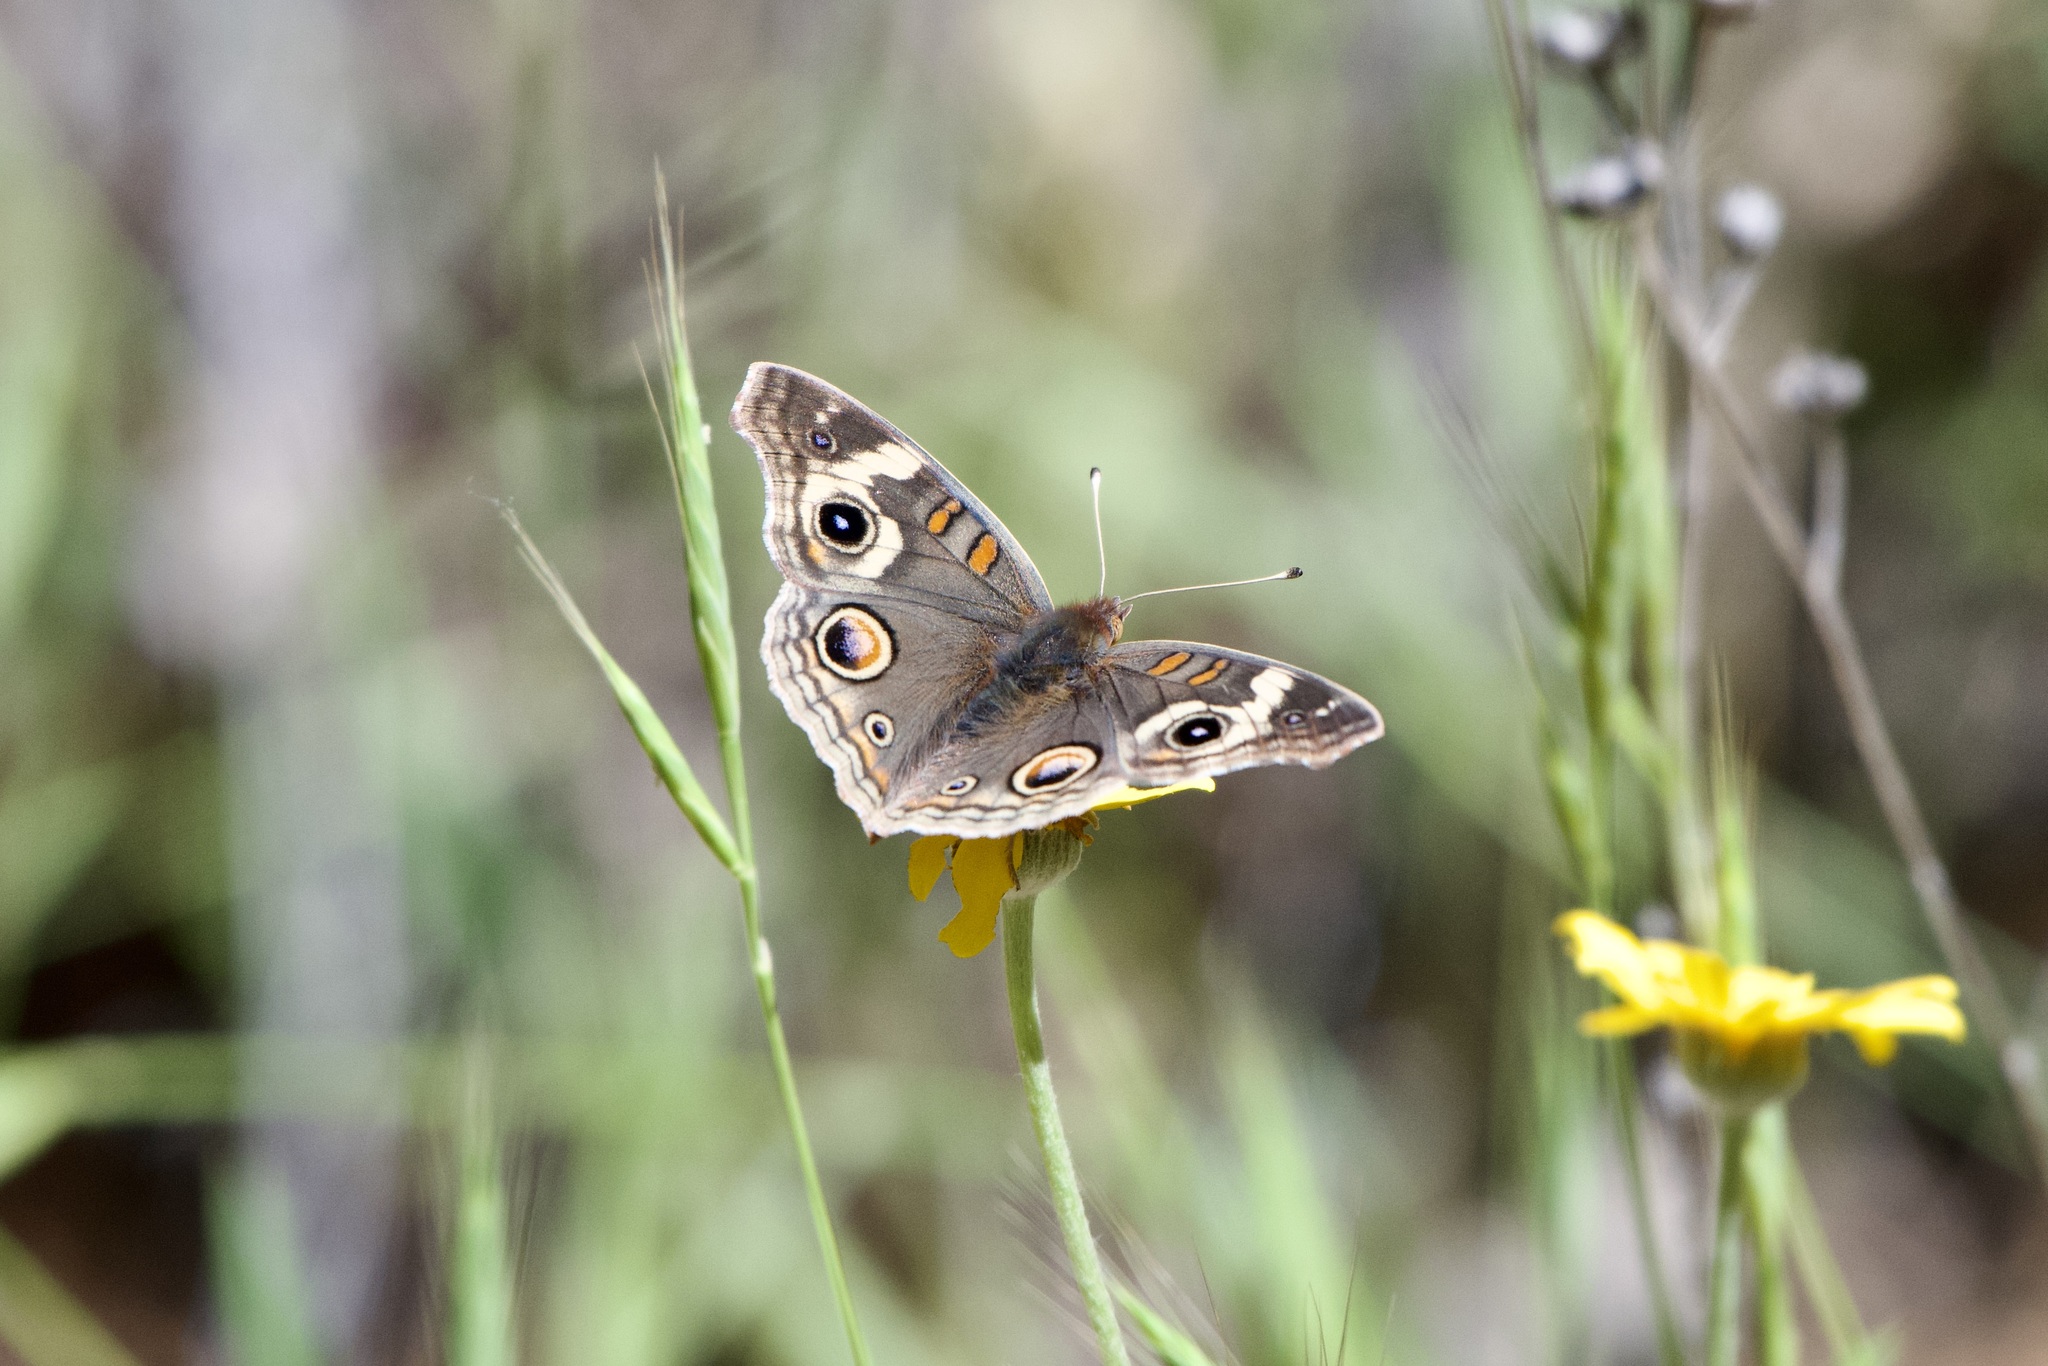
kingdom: Animalia
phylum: Arthropoda
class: Insecta
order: Lepidoptera
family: Nymphalidae
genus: Junonia
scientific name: Junonia grisea
